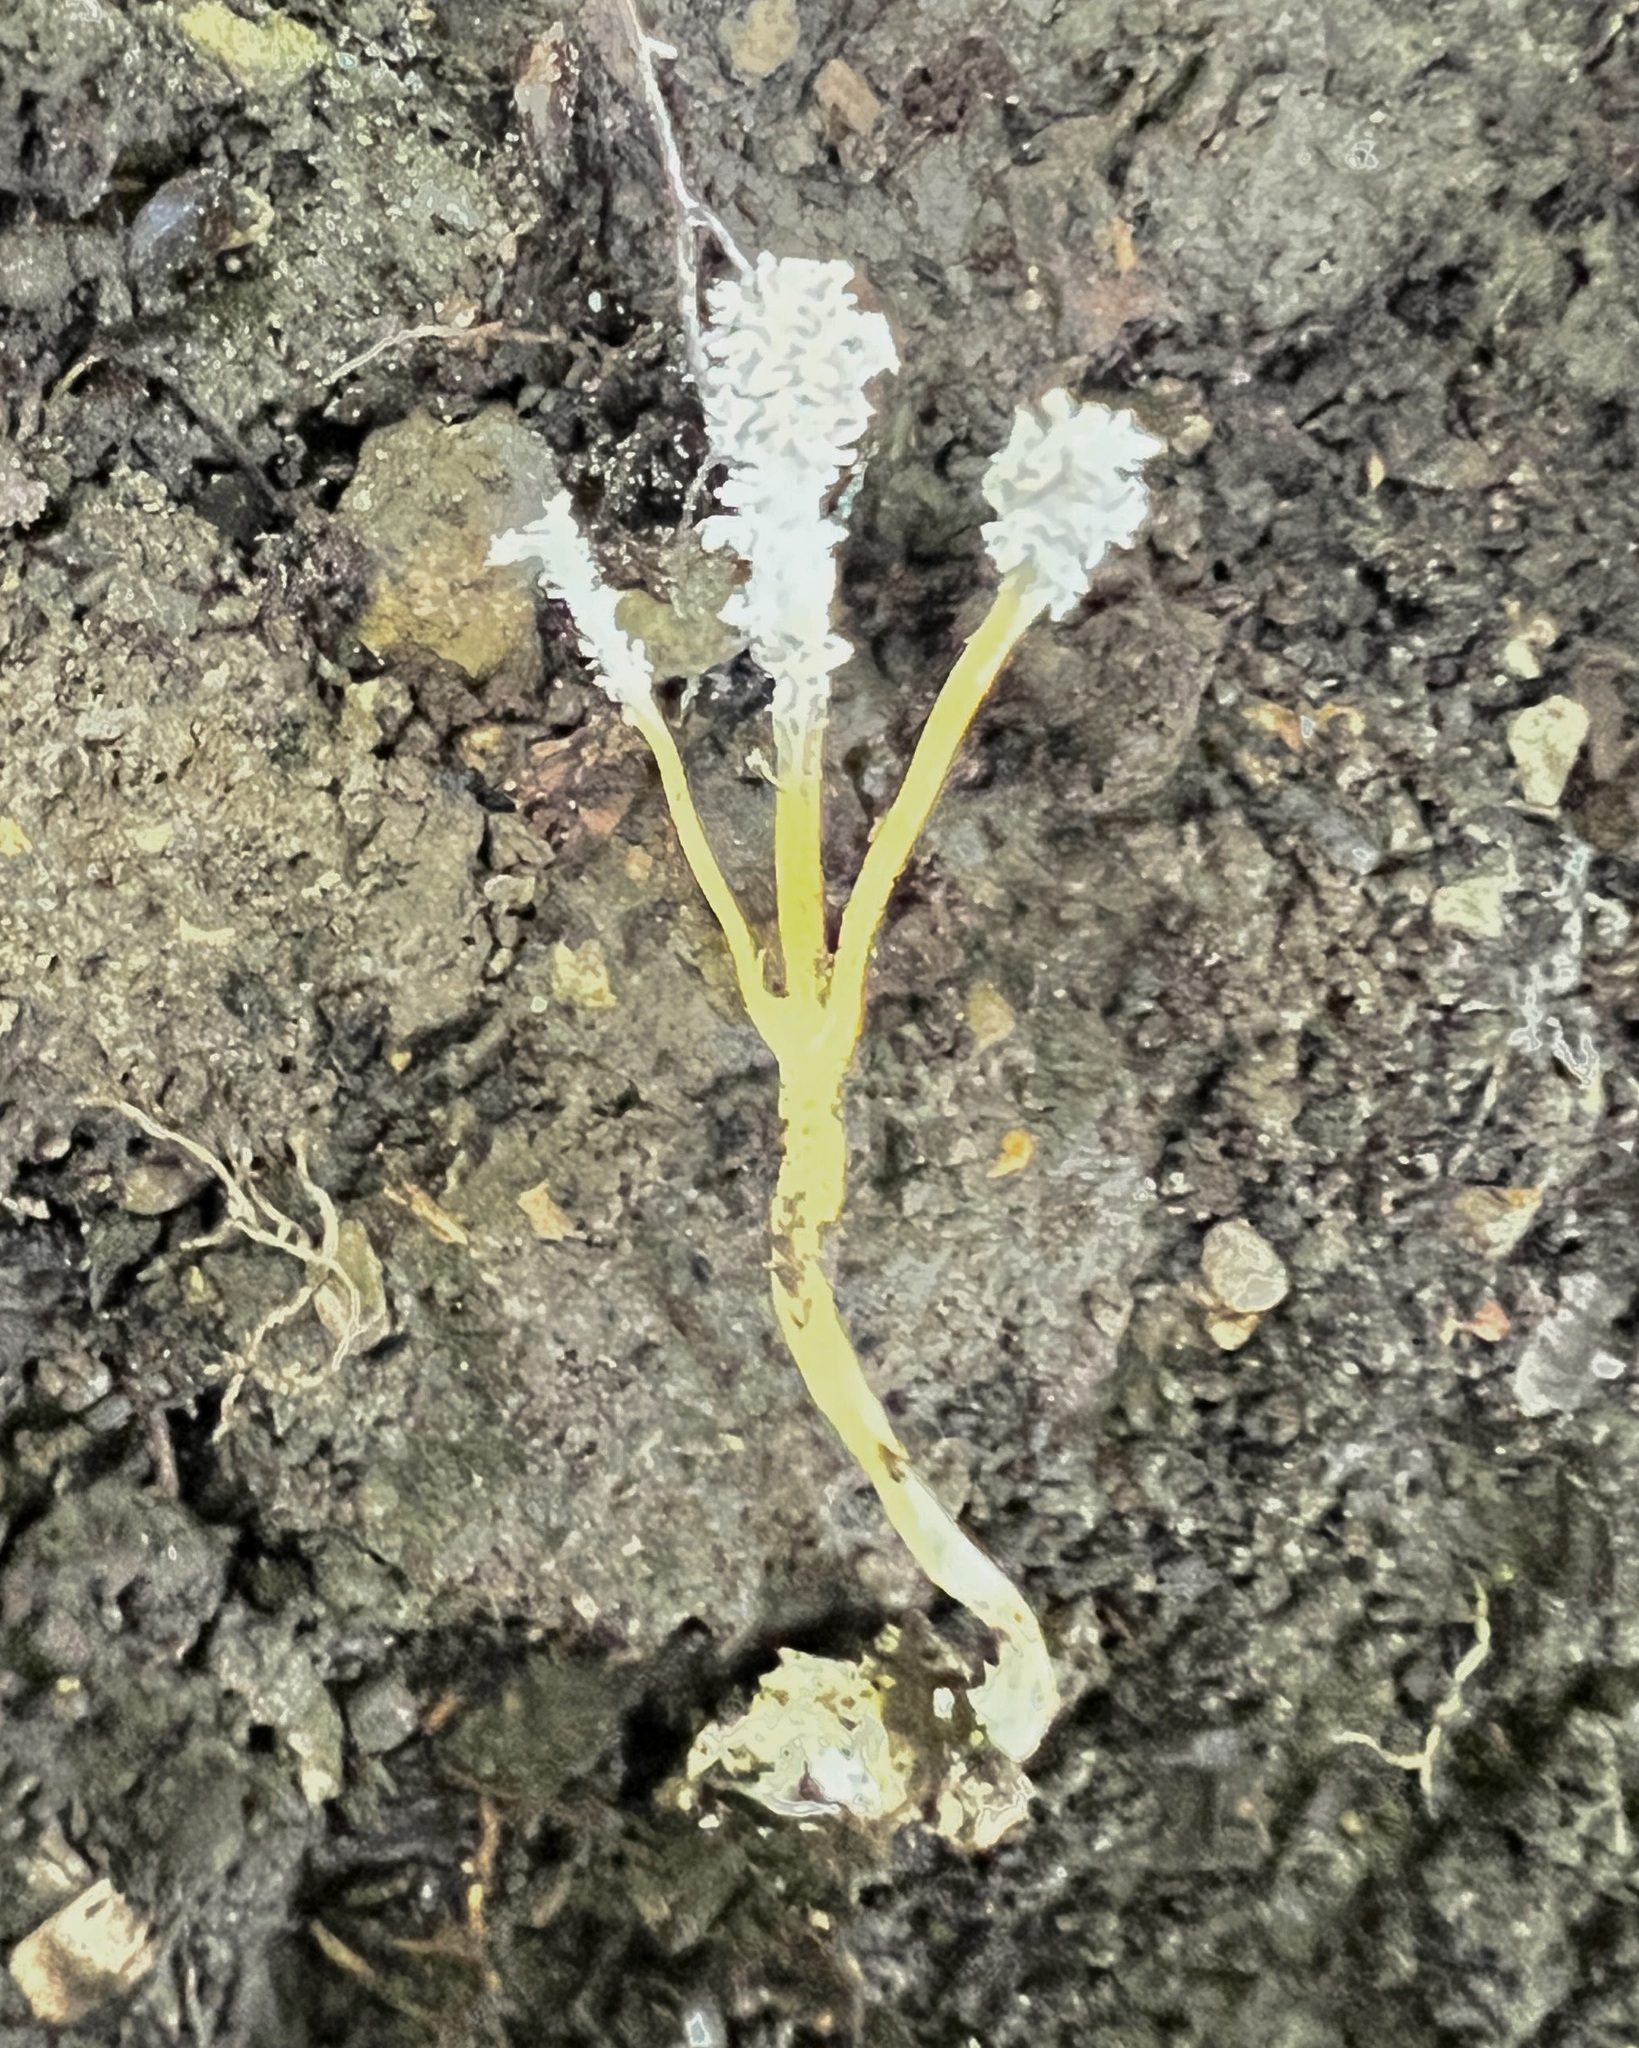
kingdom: Fungi
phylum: Ascomycota
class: Sordariomycetes
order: Hypocreales
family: Cordycipitaceae
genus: Cordyceps
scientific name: Cordyceps tenuipes
